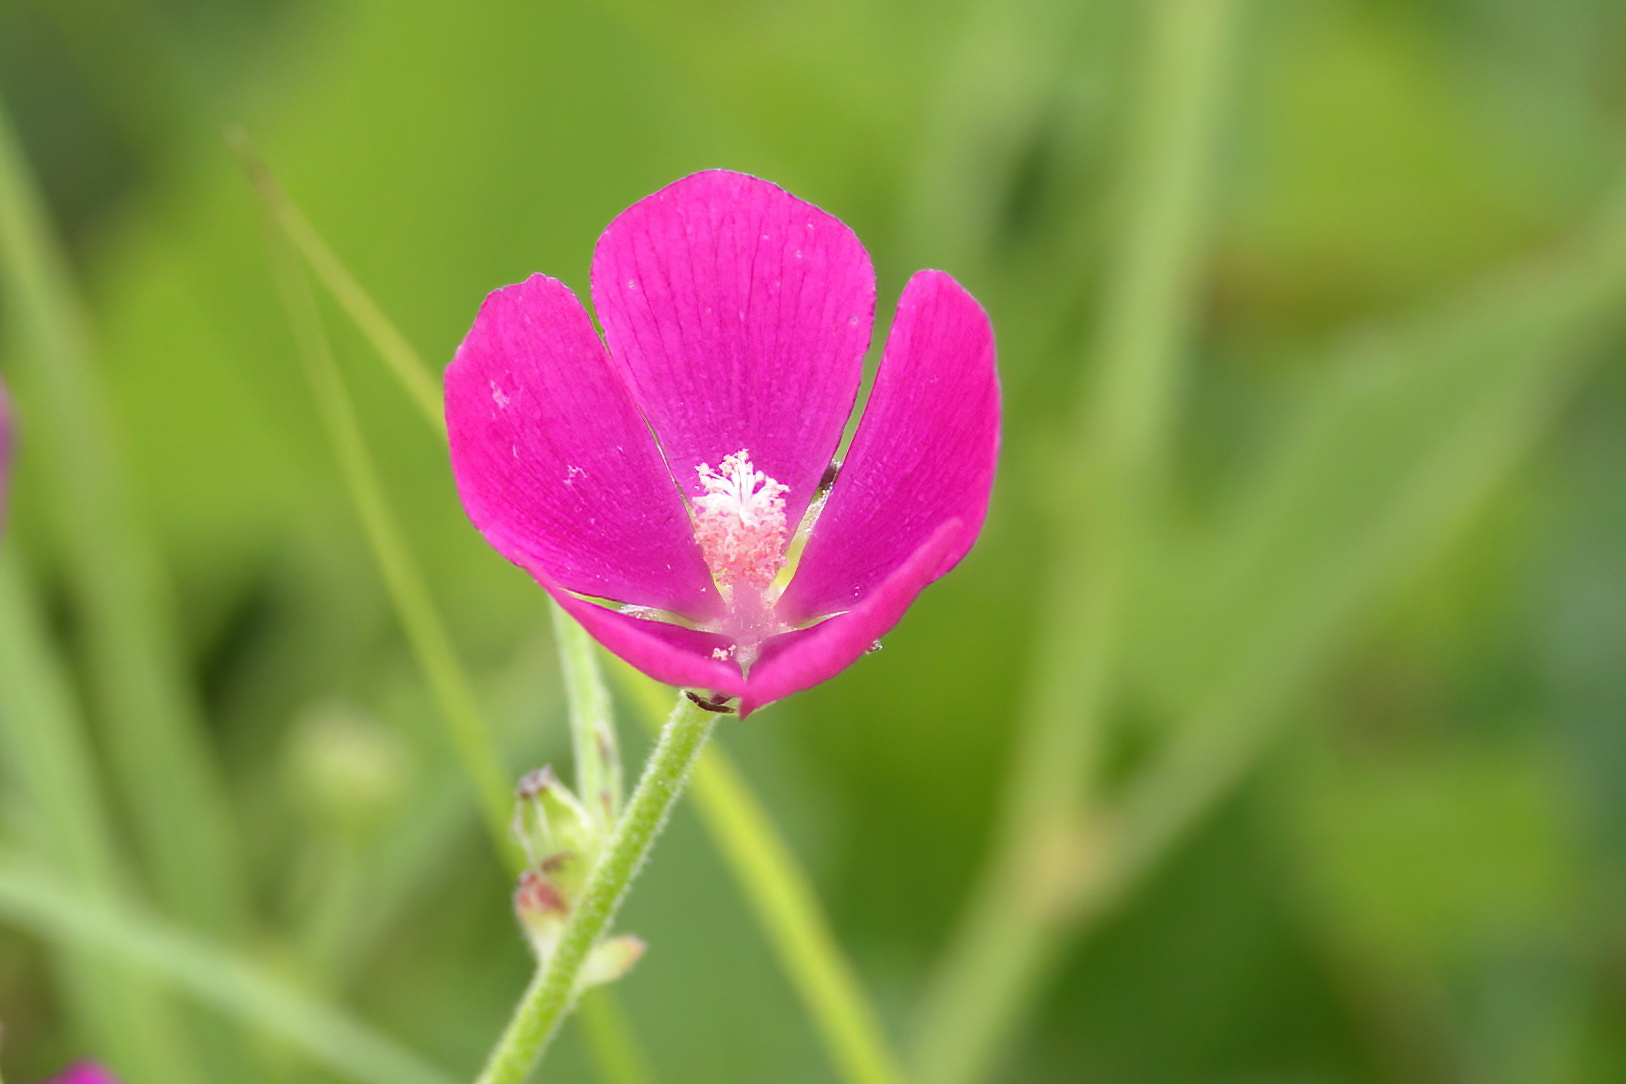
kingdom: Plantae
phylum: Tracheophyta
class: Magnoliopsida
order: Malvales
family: Malvaceae
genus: Callirhoe
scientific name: Callirhoe triangulata
